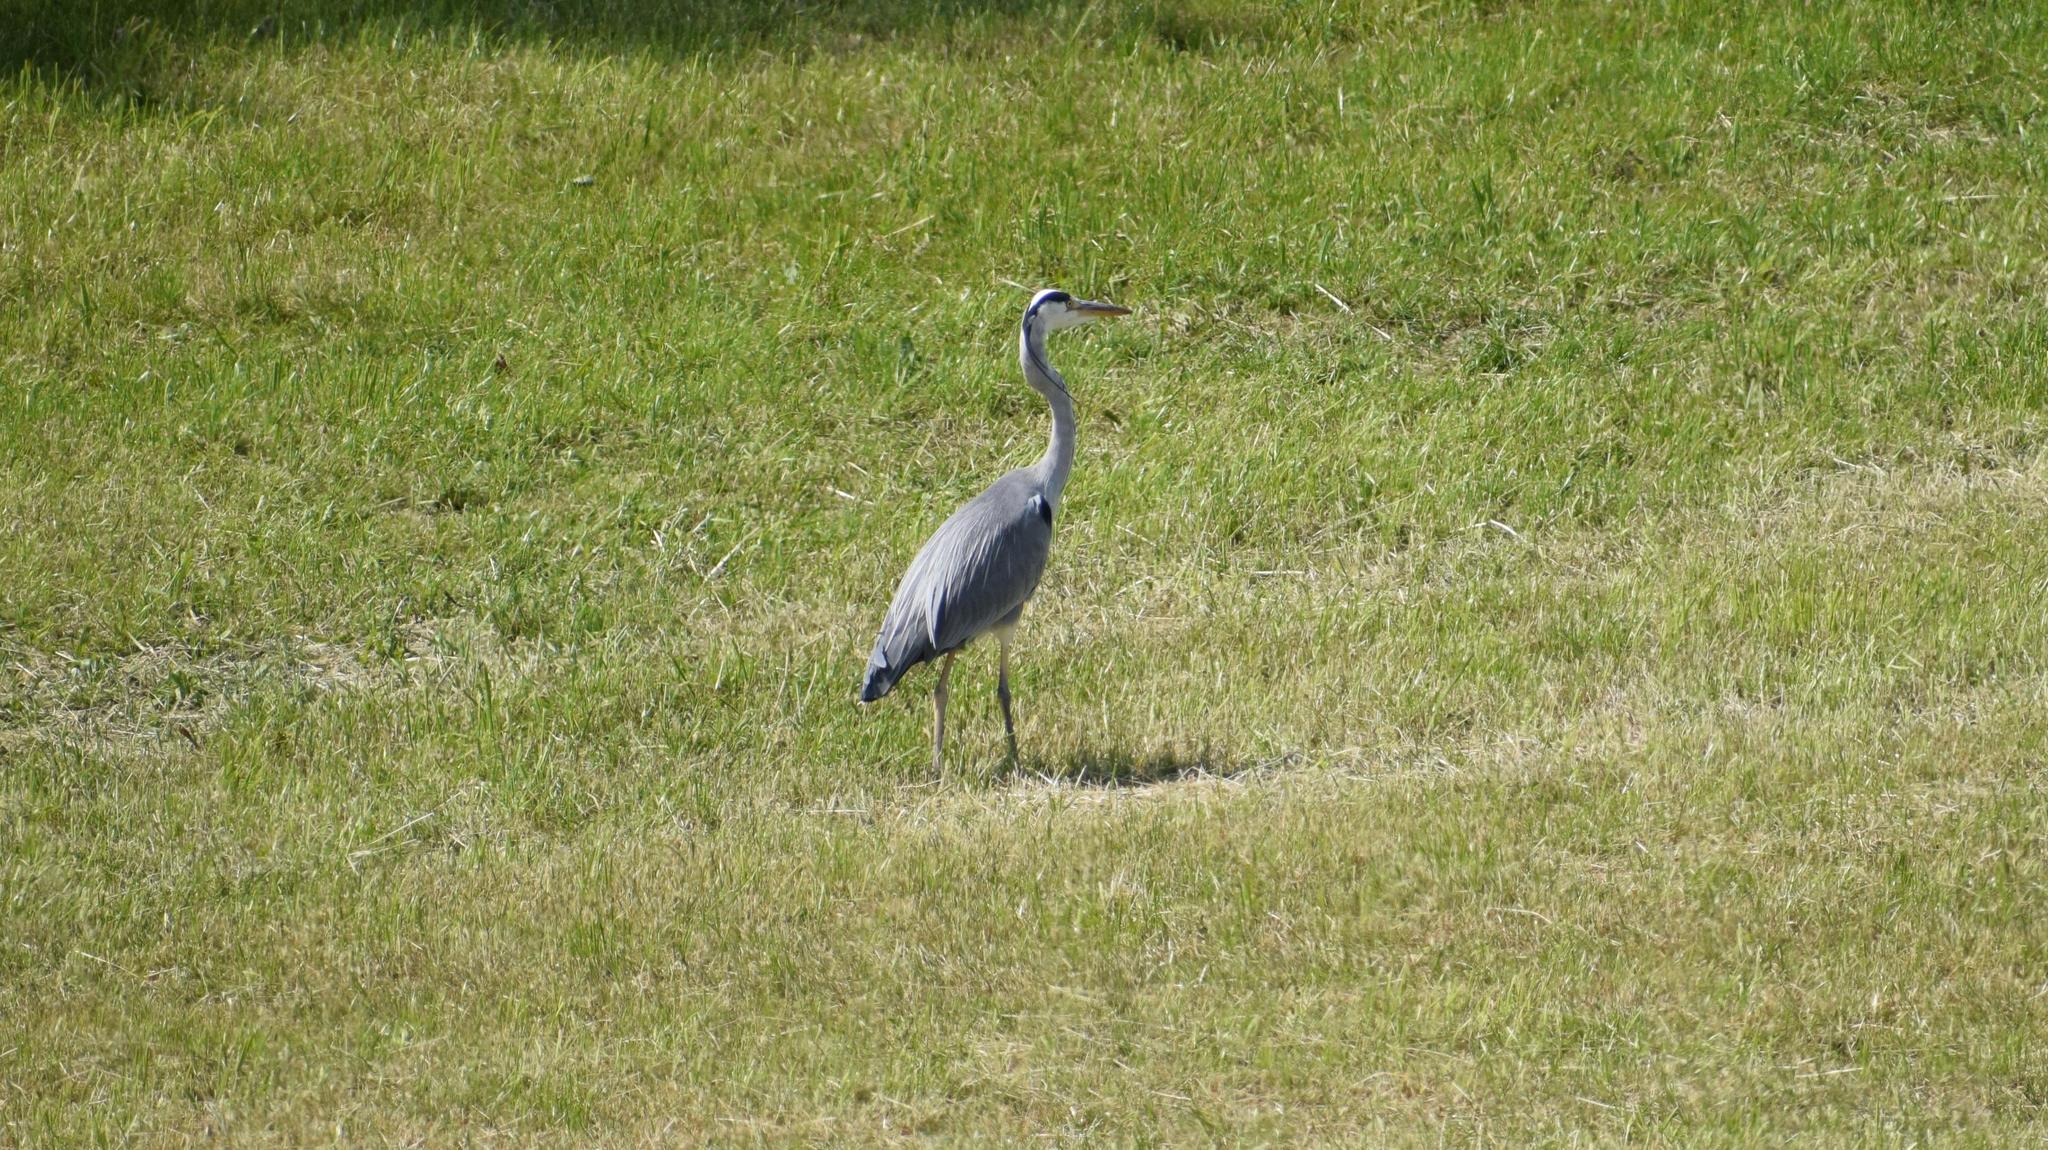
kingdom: Animalia
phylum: Chordata
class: Aves
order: Pelecaniformes
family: Ardeidae
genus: Ardea
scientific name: Ardea cinerea
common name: Grey heron
